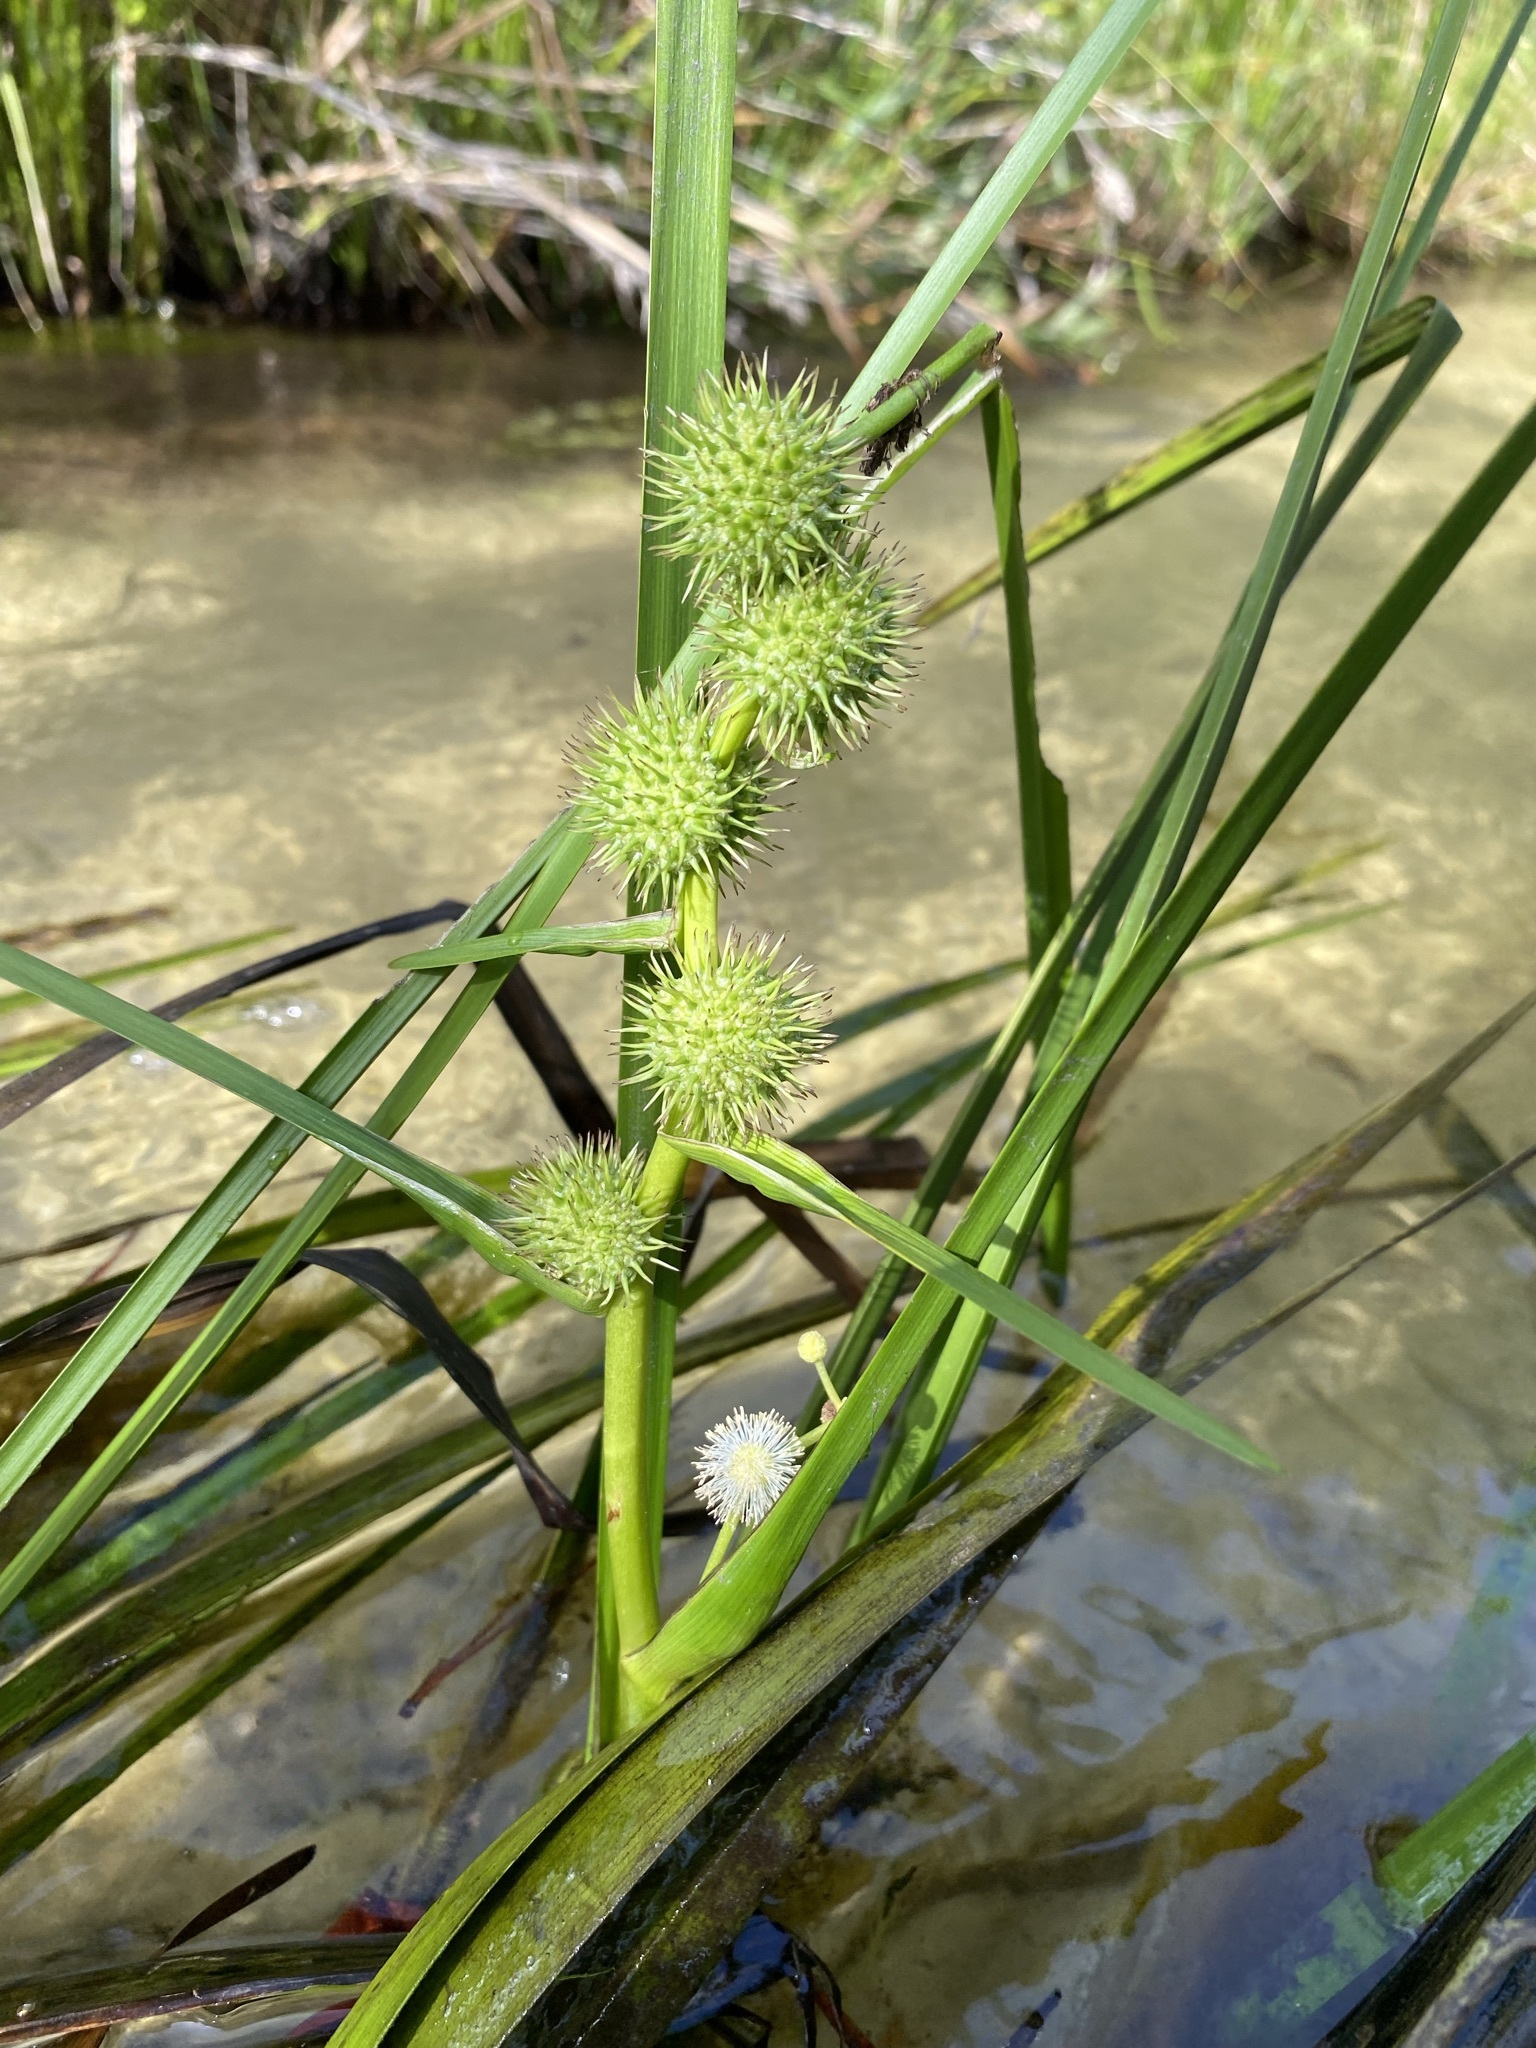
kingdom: Plantae
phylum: Tracheophyta
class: Liliopsida
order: Poales
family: Typhaceae
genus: Sparganium
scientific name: Sparganium americanum
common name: American burreed
